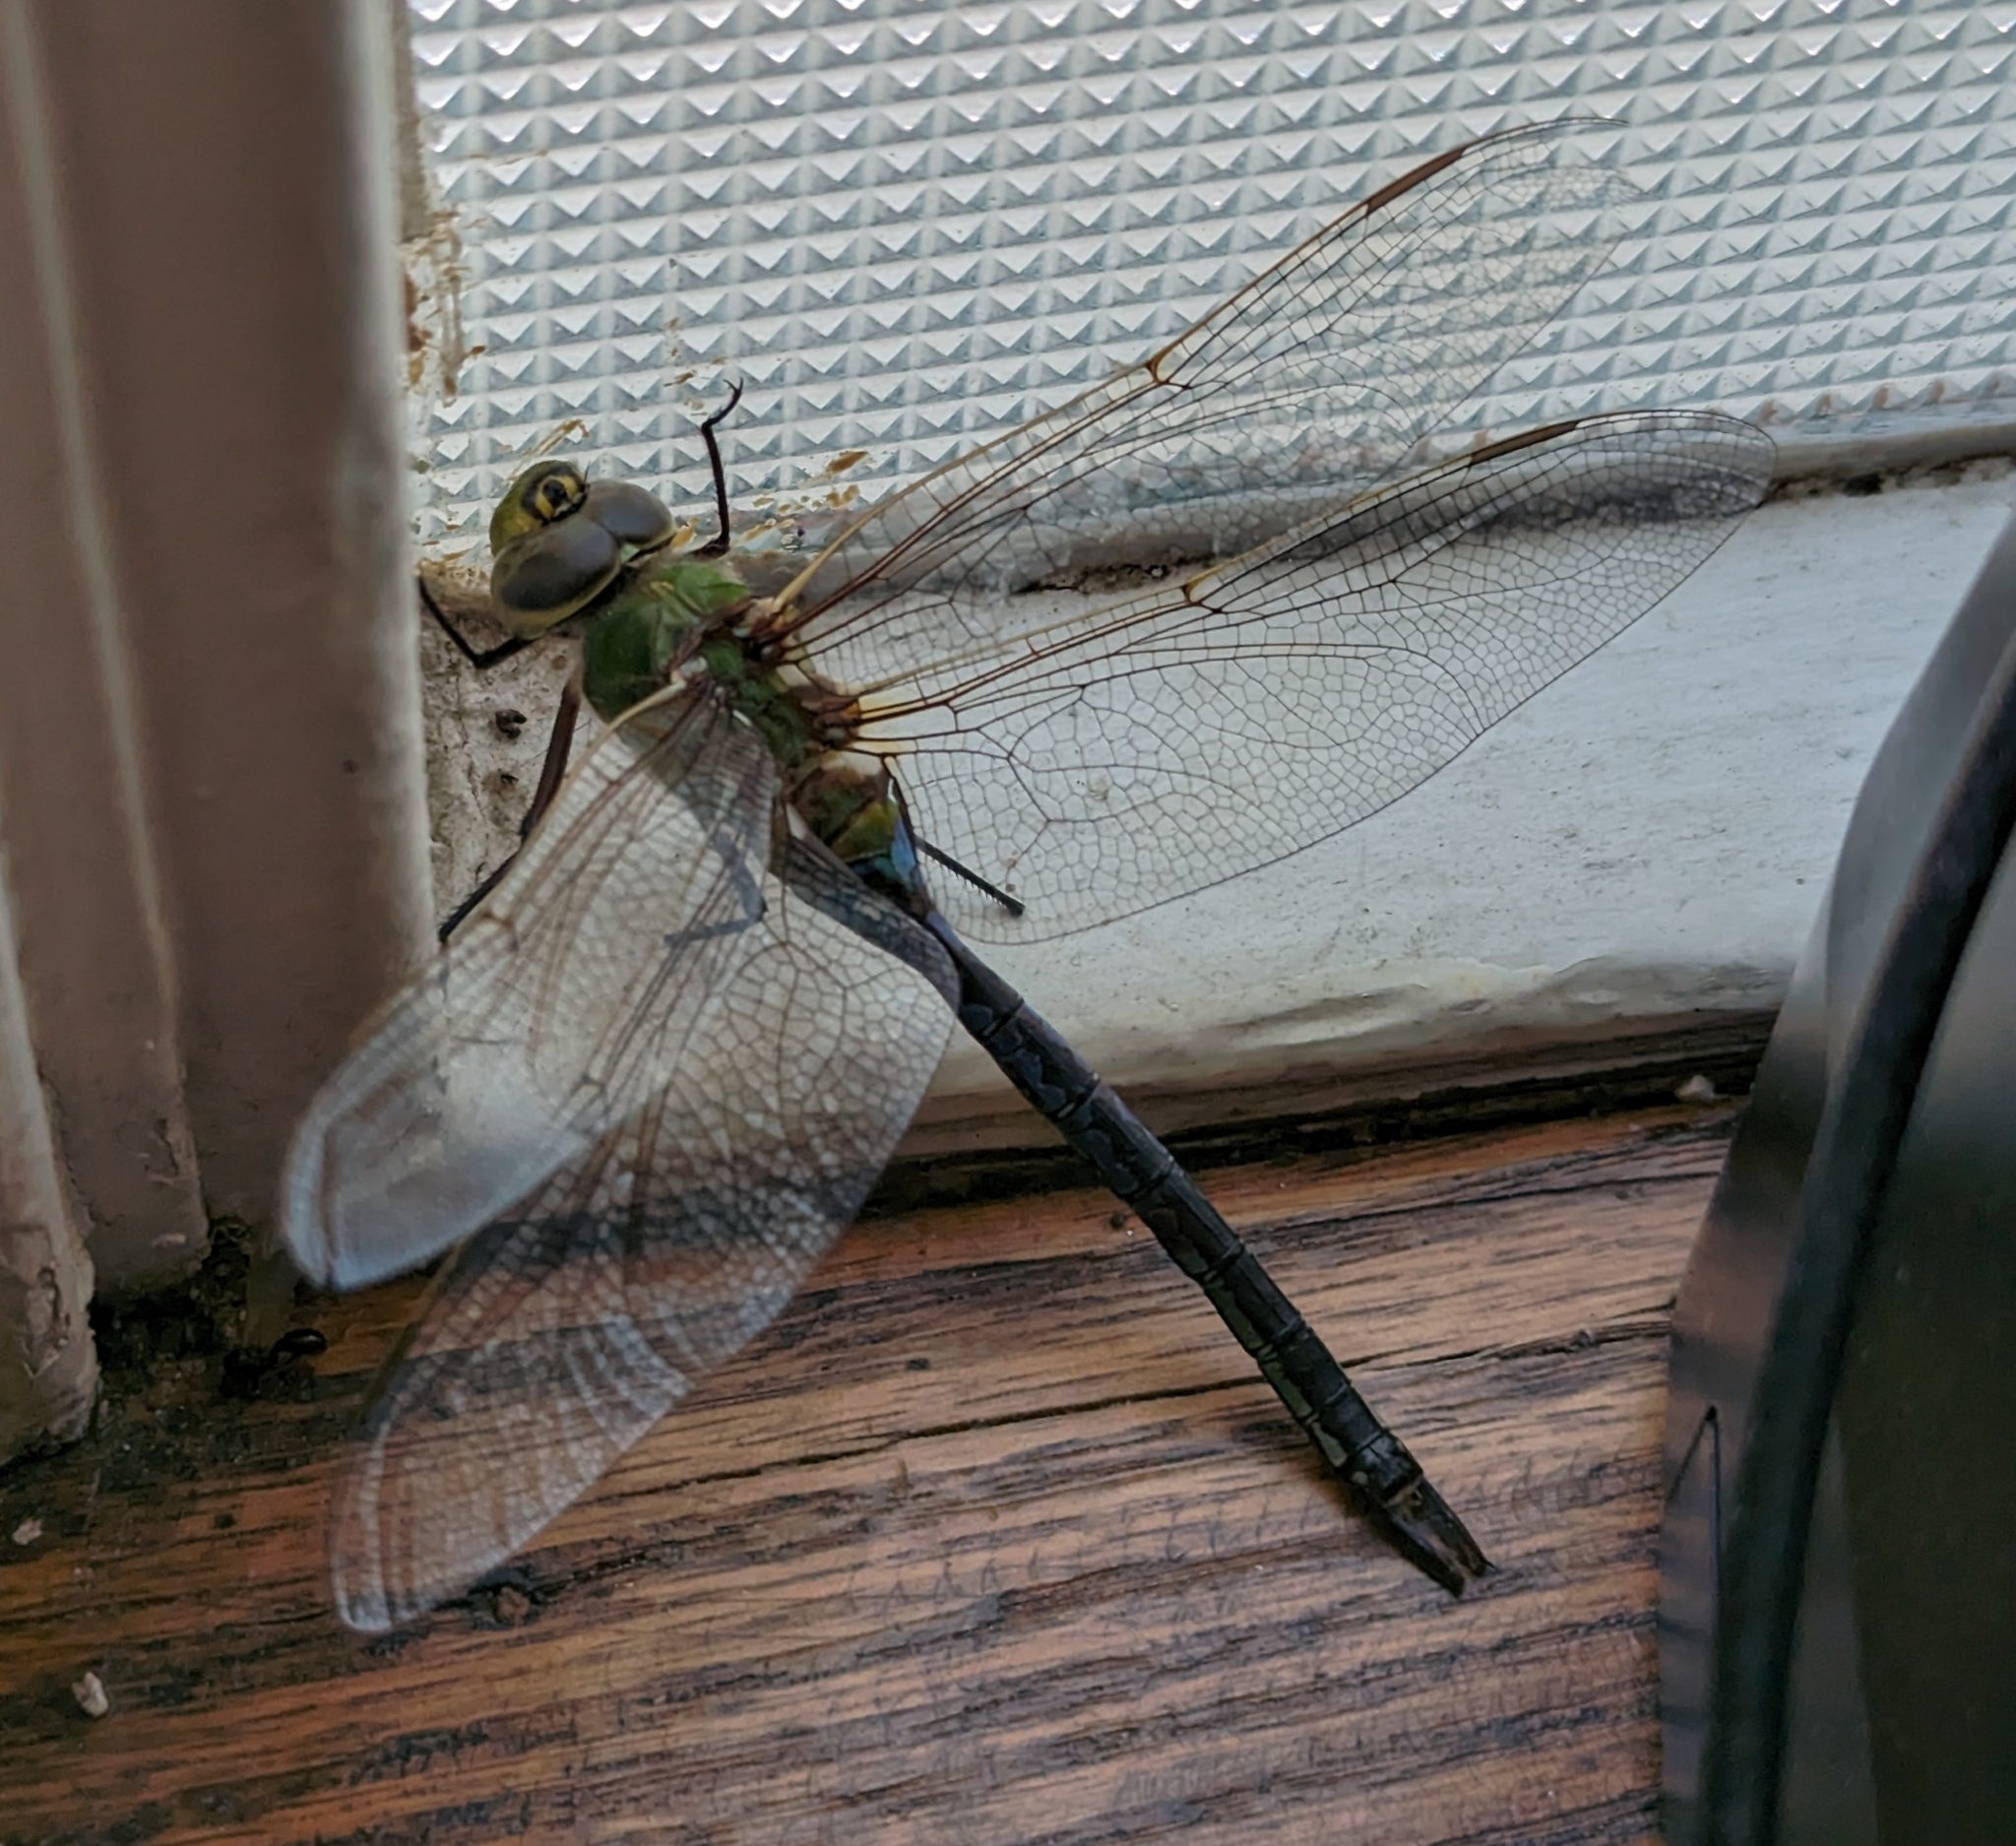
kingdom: Animalia
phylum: Arthropoda
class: Insecta
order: Odonata
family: Aeshnidae
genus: Anax
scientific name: Anax junius
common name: Common green darner
